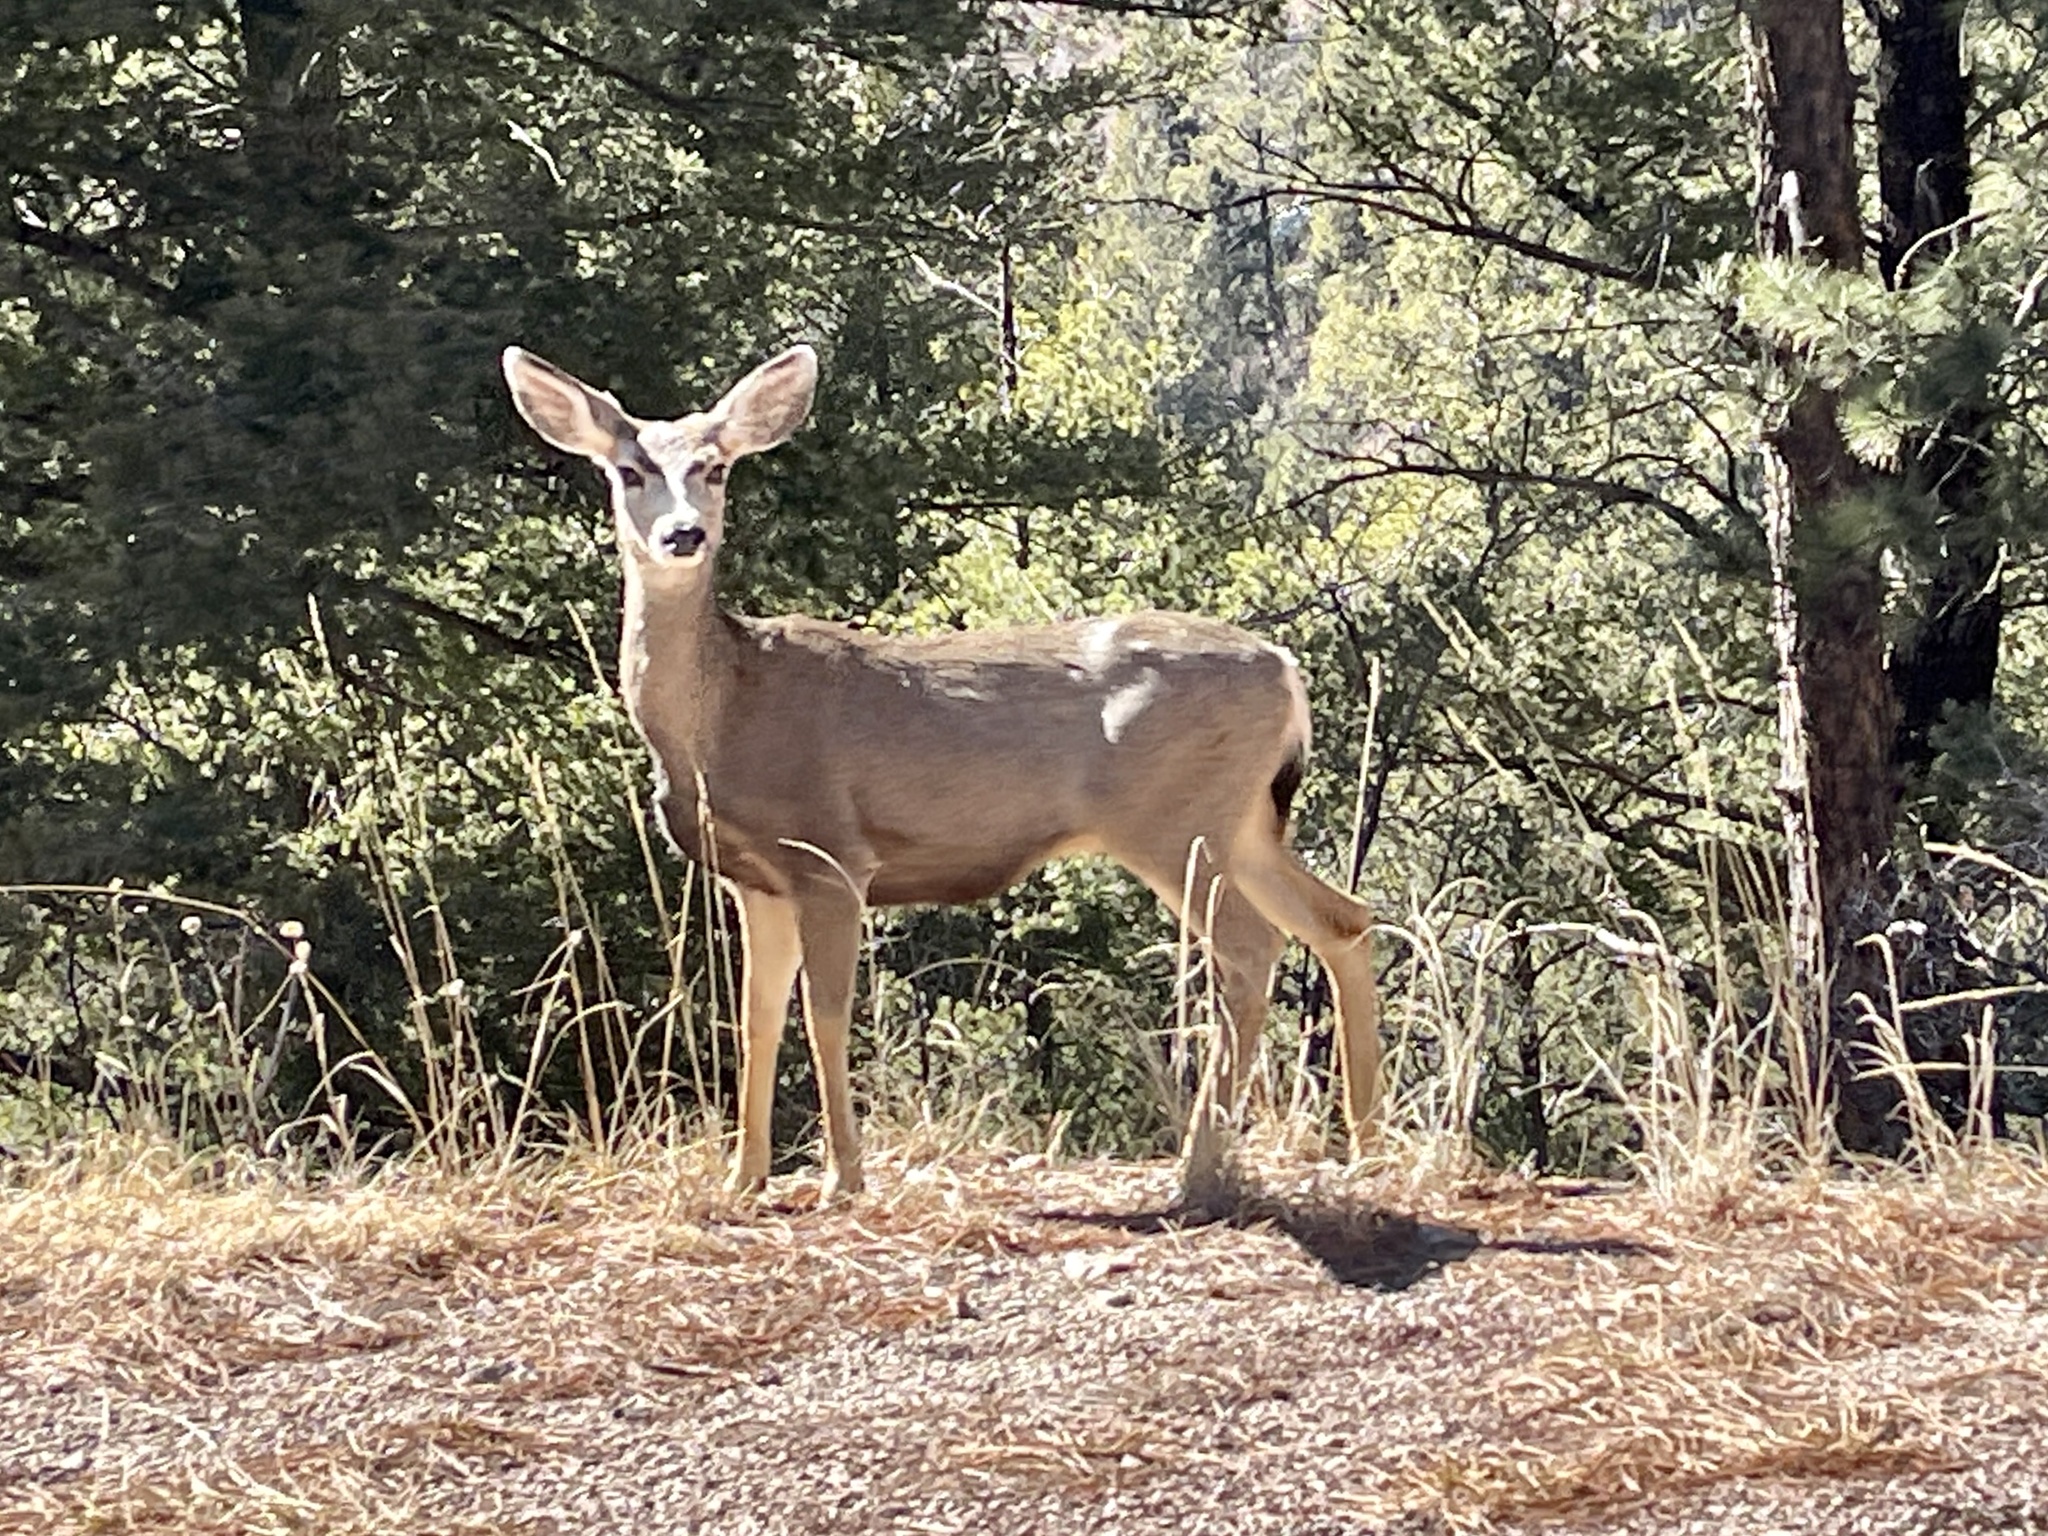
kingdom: Animalia
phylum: Chordata
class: Mammalia
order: Artiodactyla
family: Cervidae
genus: Odocoileus
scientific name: Odocoileus hemionus
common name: Mule deer
